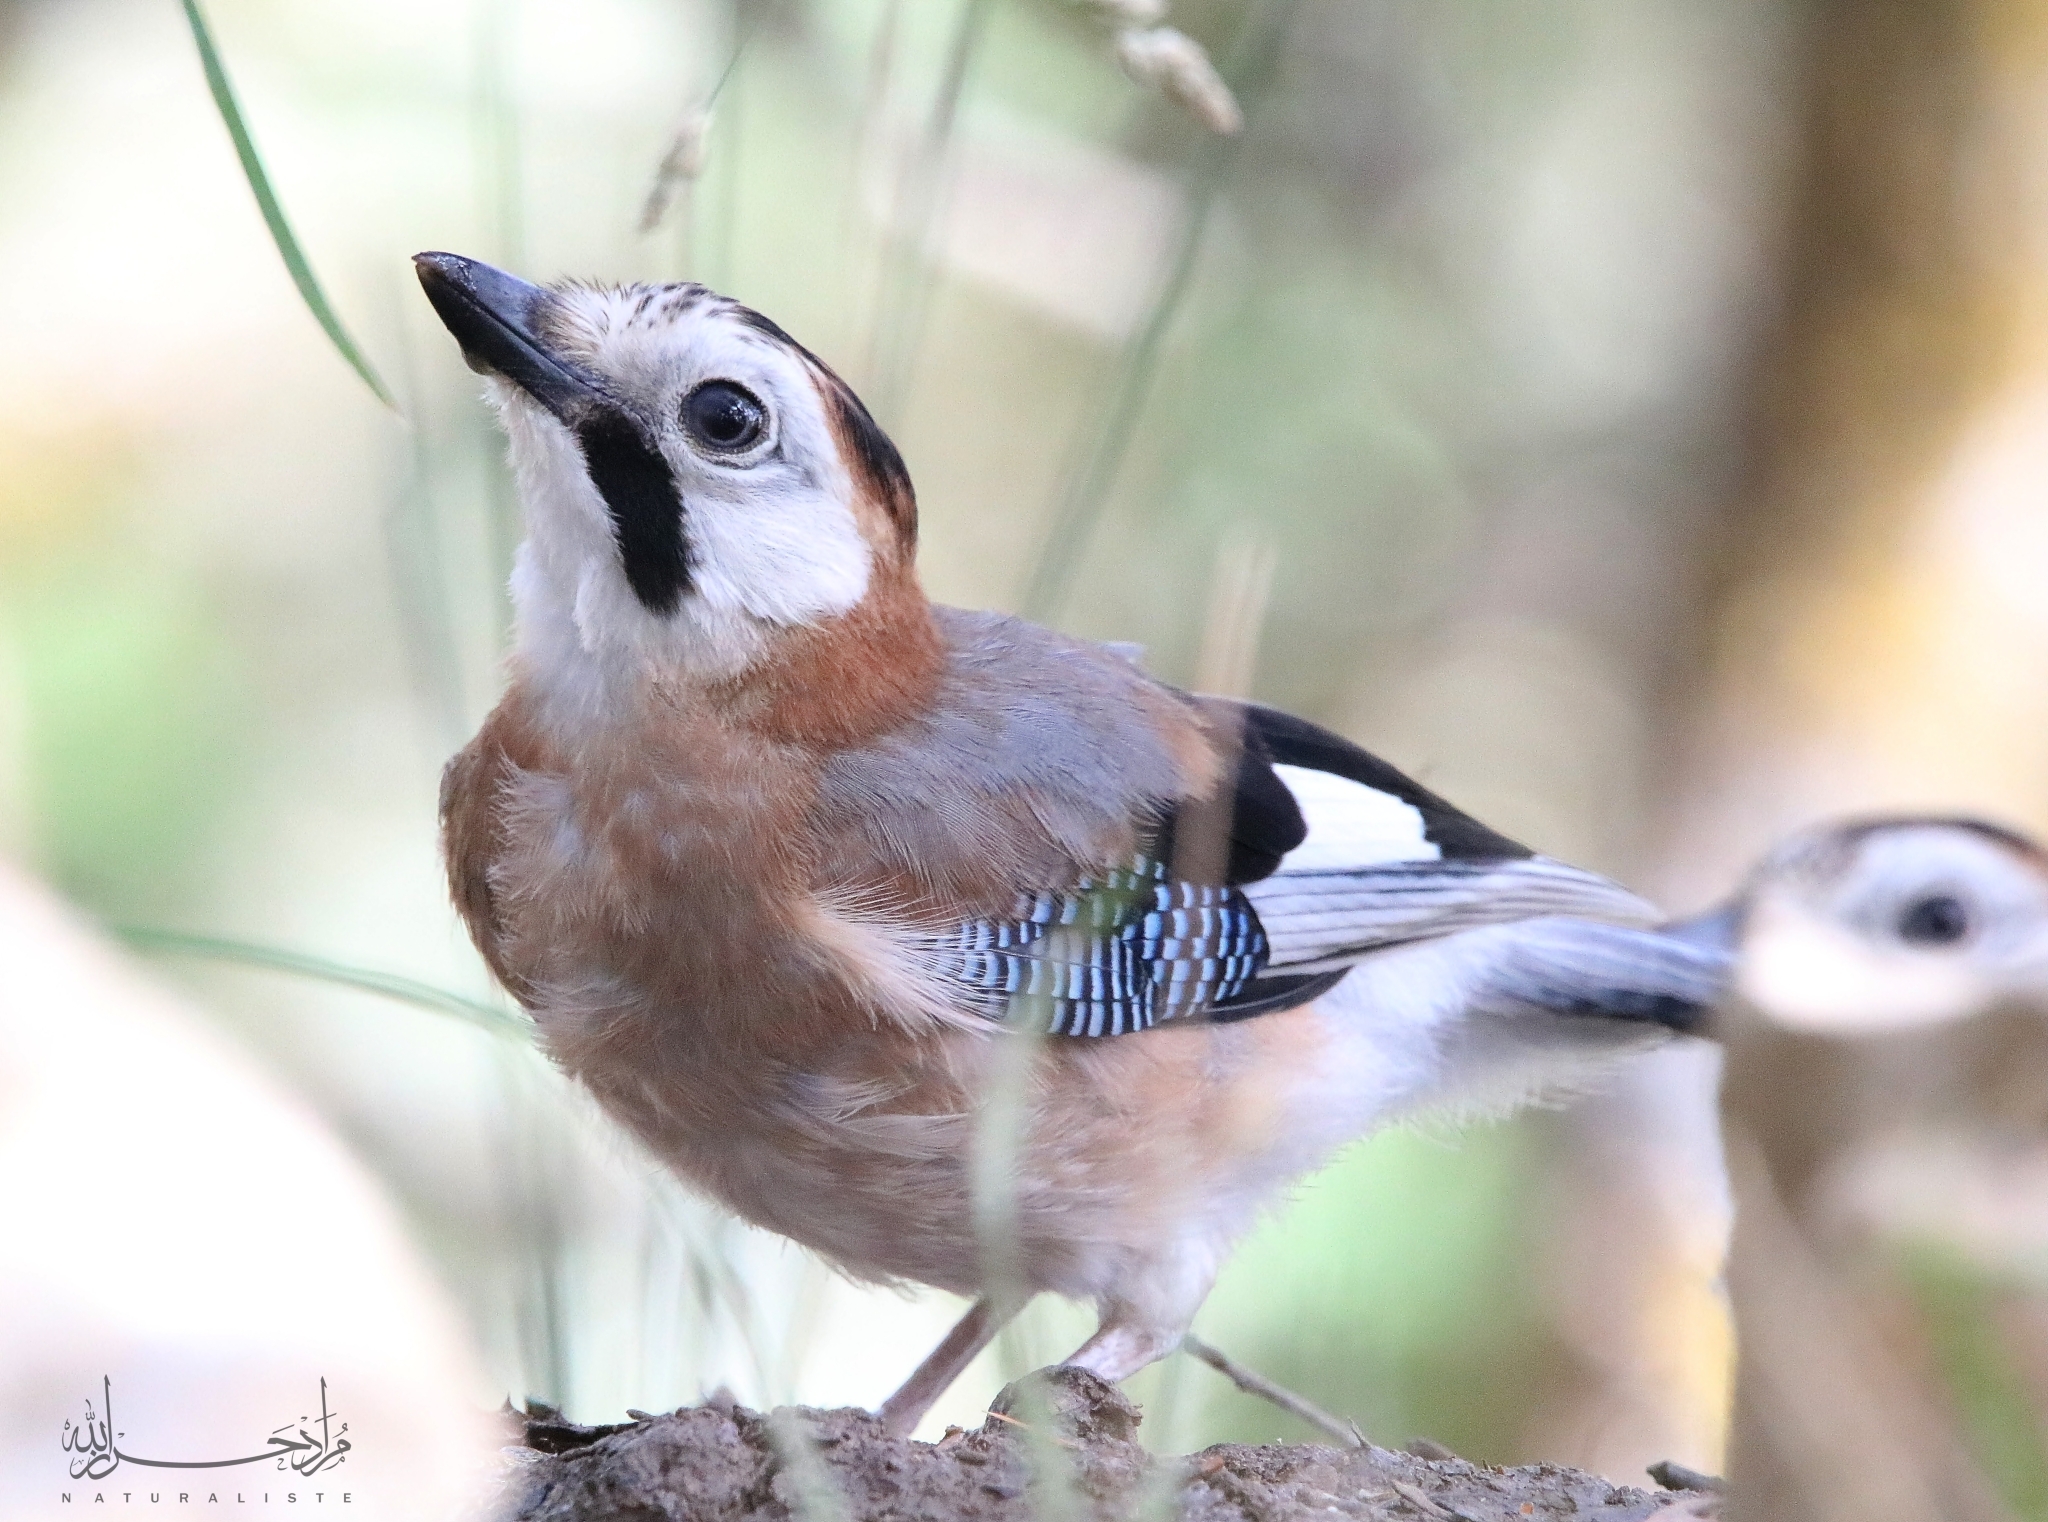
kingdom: Animalia
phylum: Chordata
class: Aves
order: Passeriformes
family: Corvidae
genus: Garrulus
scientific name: Garrulus glandarius
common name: Eurasian jay
